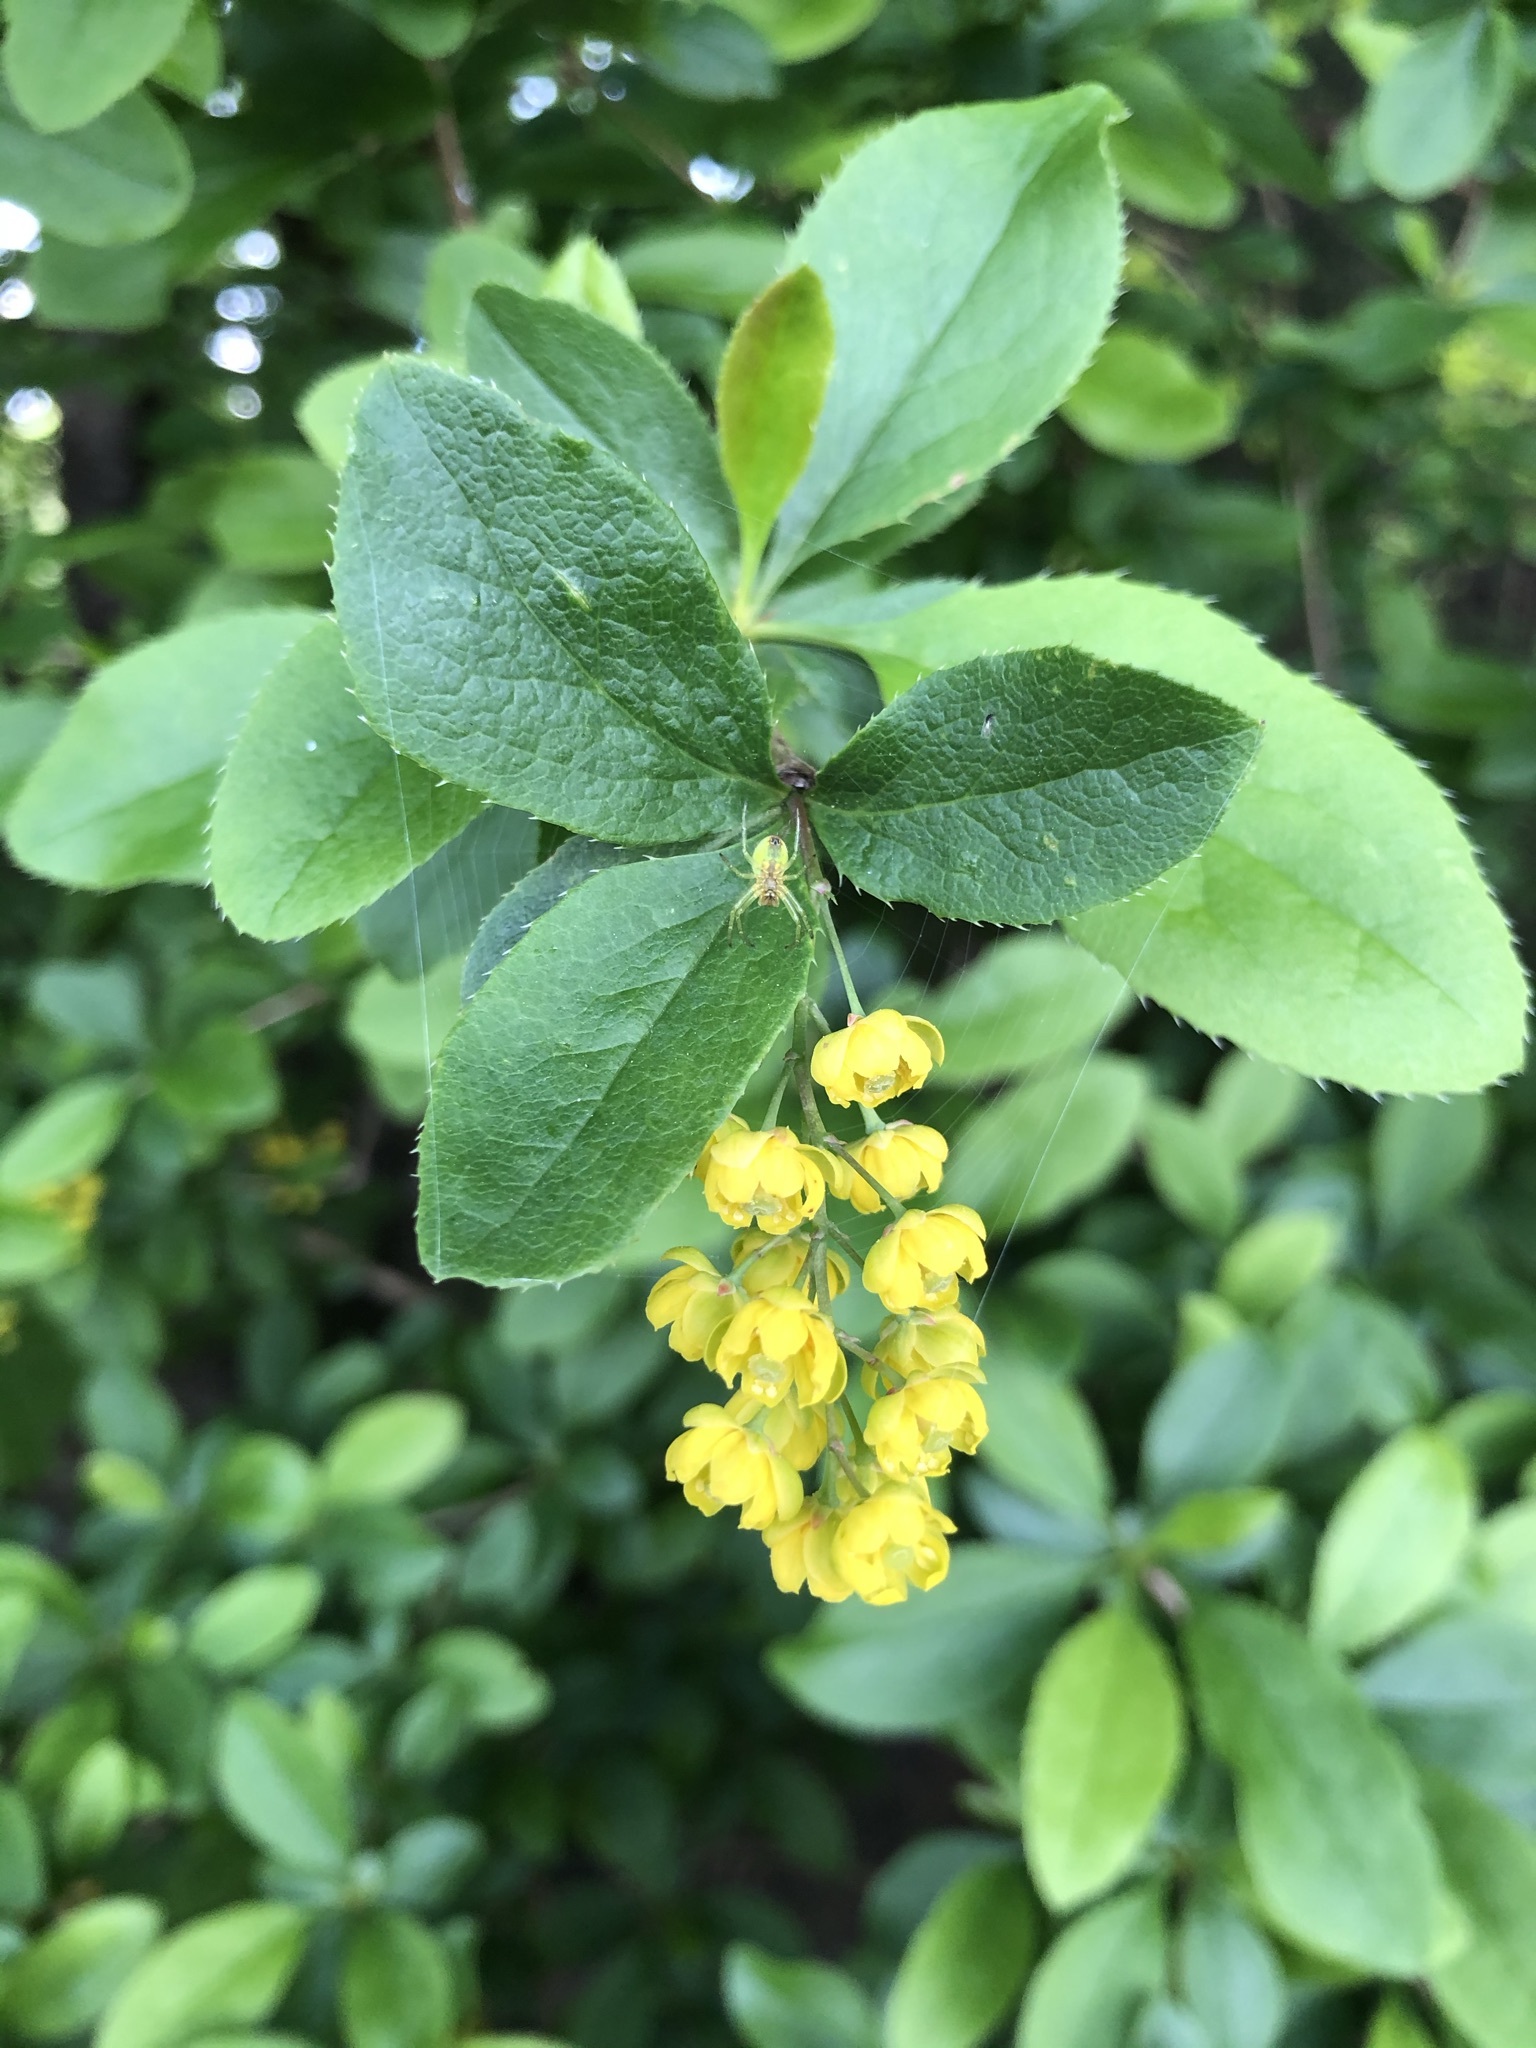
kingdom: Plantae
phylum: Tracheophyta
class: Magnoliopsida
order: Ranunculales
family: Berberidaceae
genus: Berberis
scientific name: Berberis vulgaris
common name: Barberry
